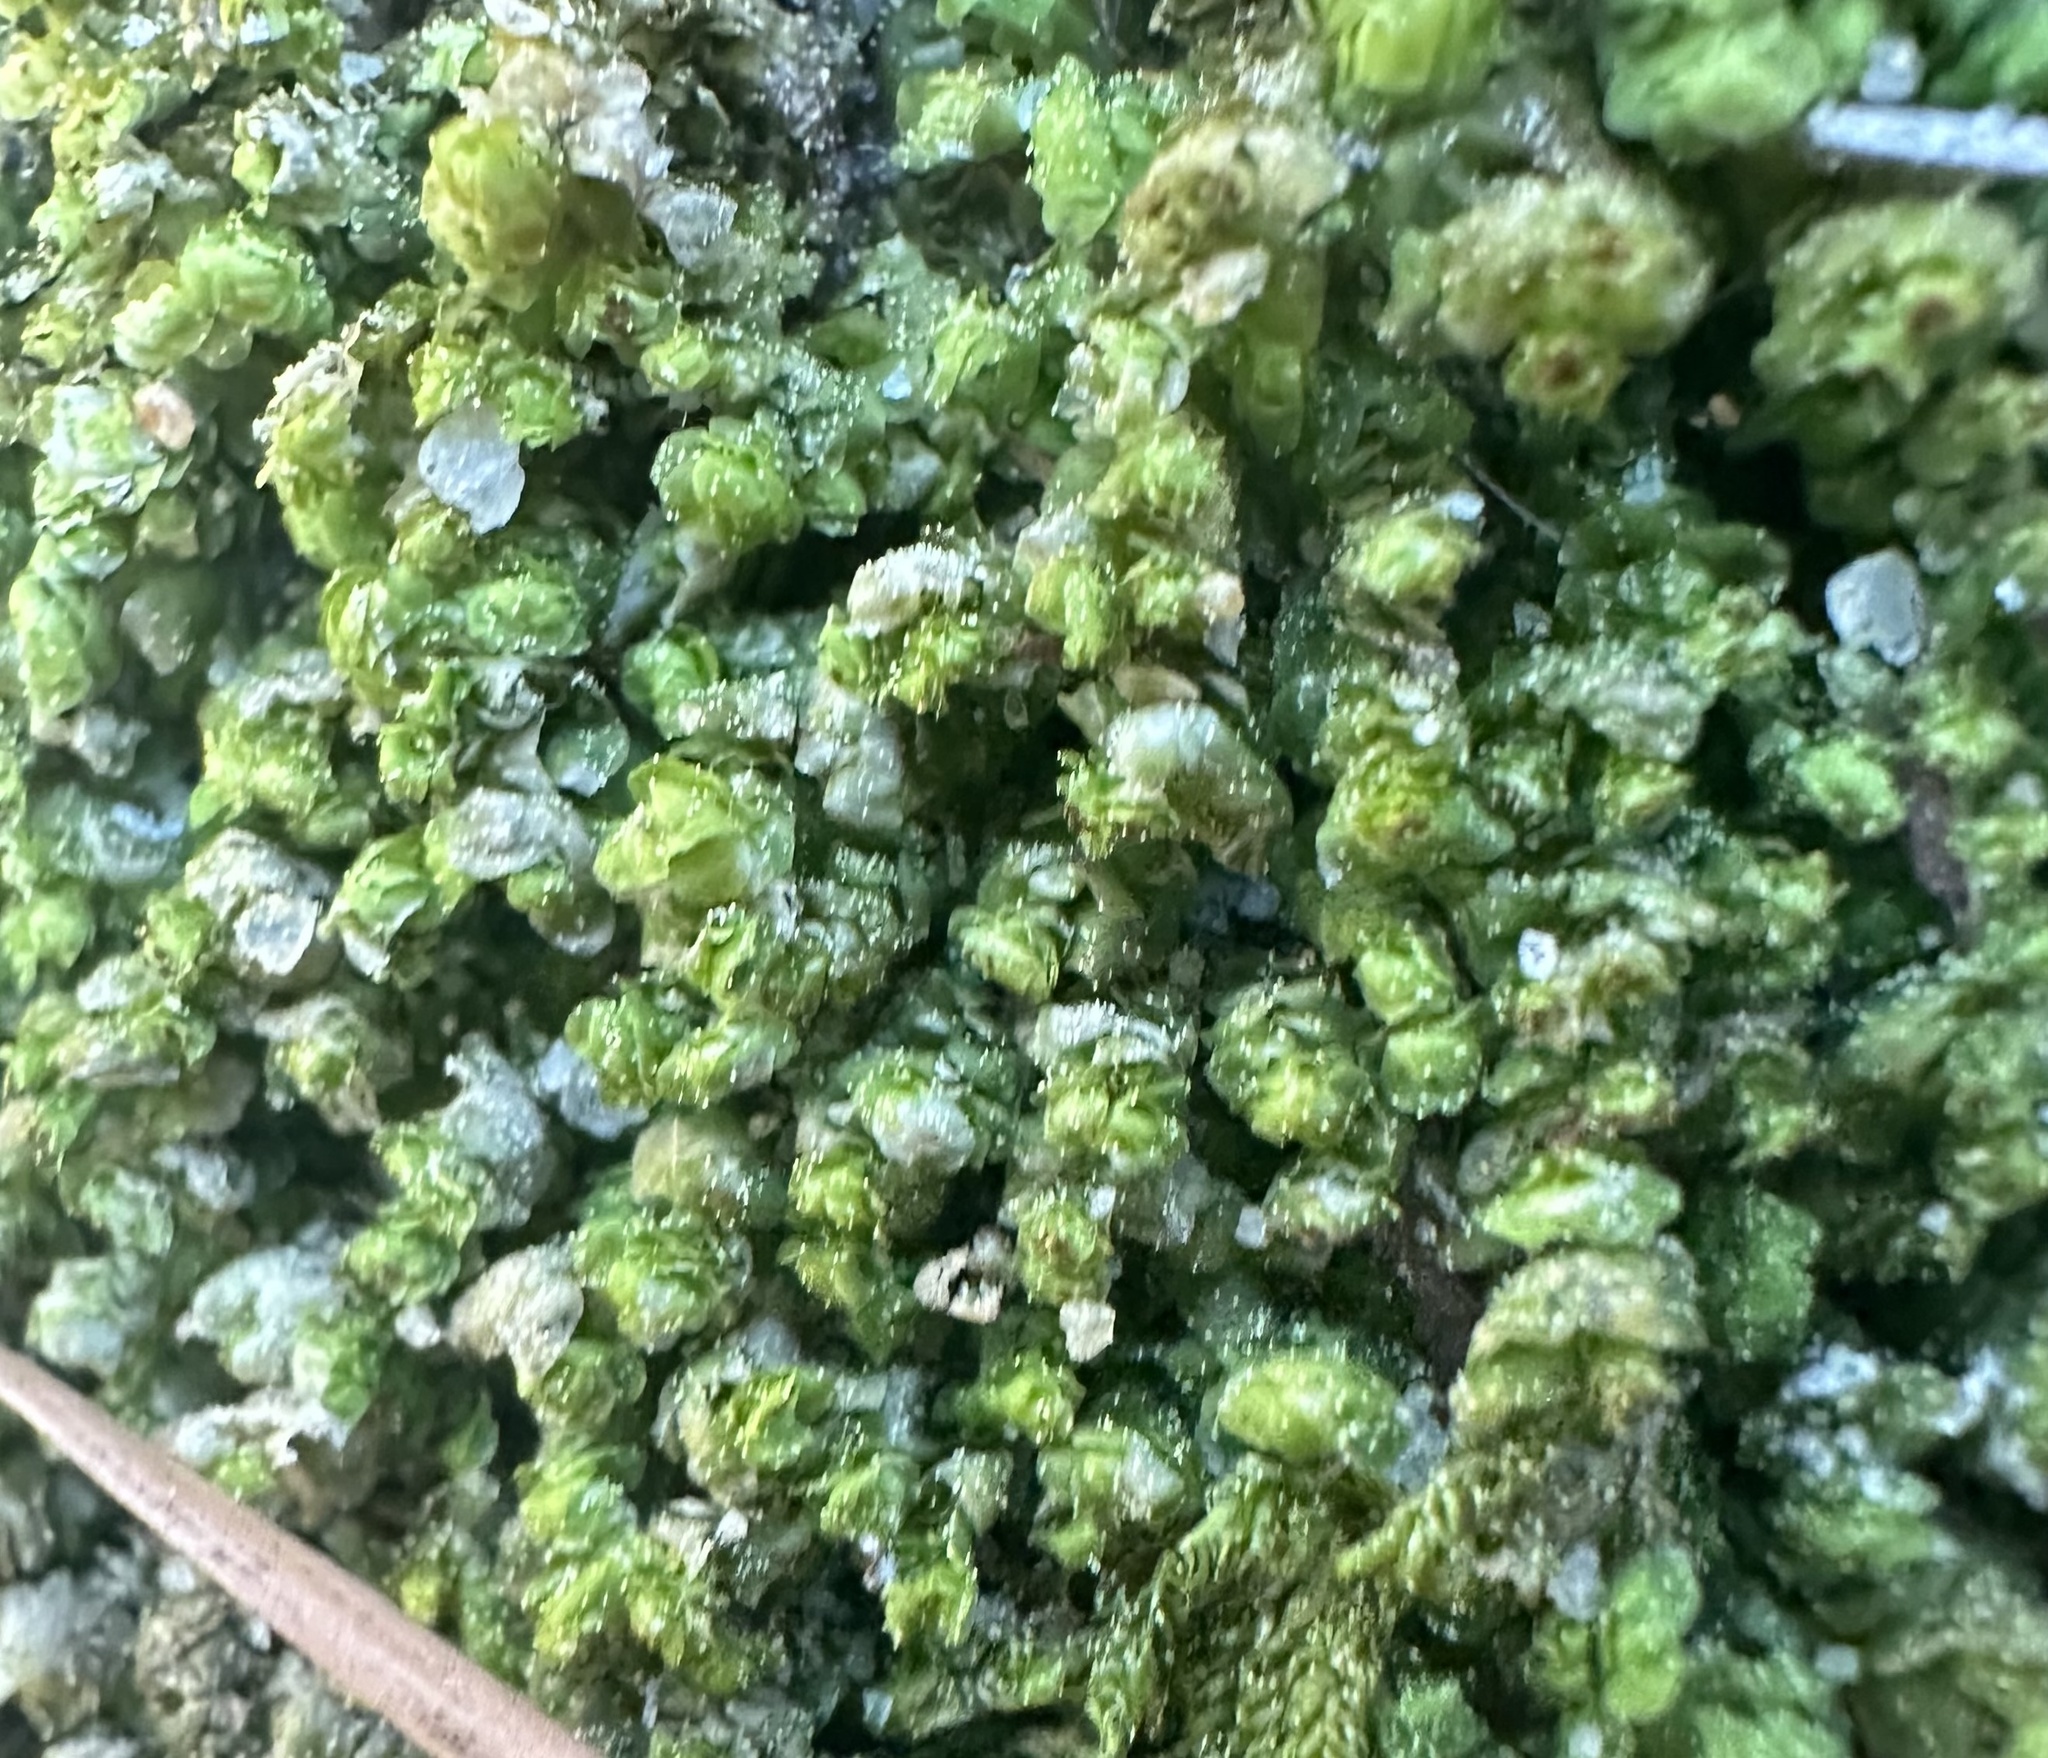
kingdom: Plantae
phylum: Marchantiophyta
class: Jungermanniopsida
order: Jungermanniales
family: Scapaniaceae
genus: Scapania
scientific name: Scapania nemorea
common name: Grove earwort
